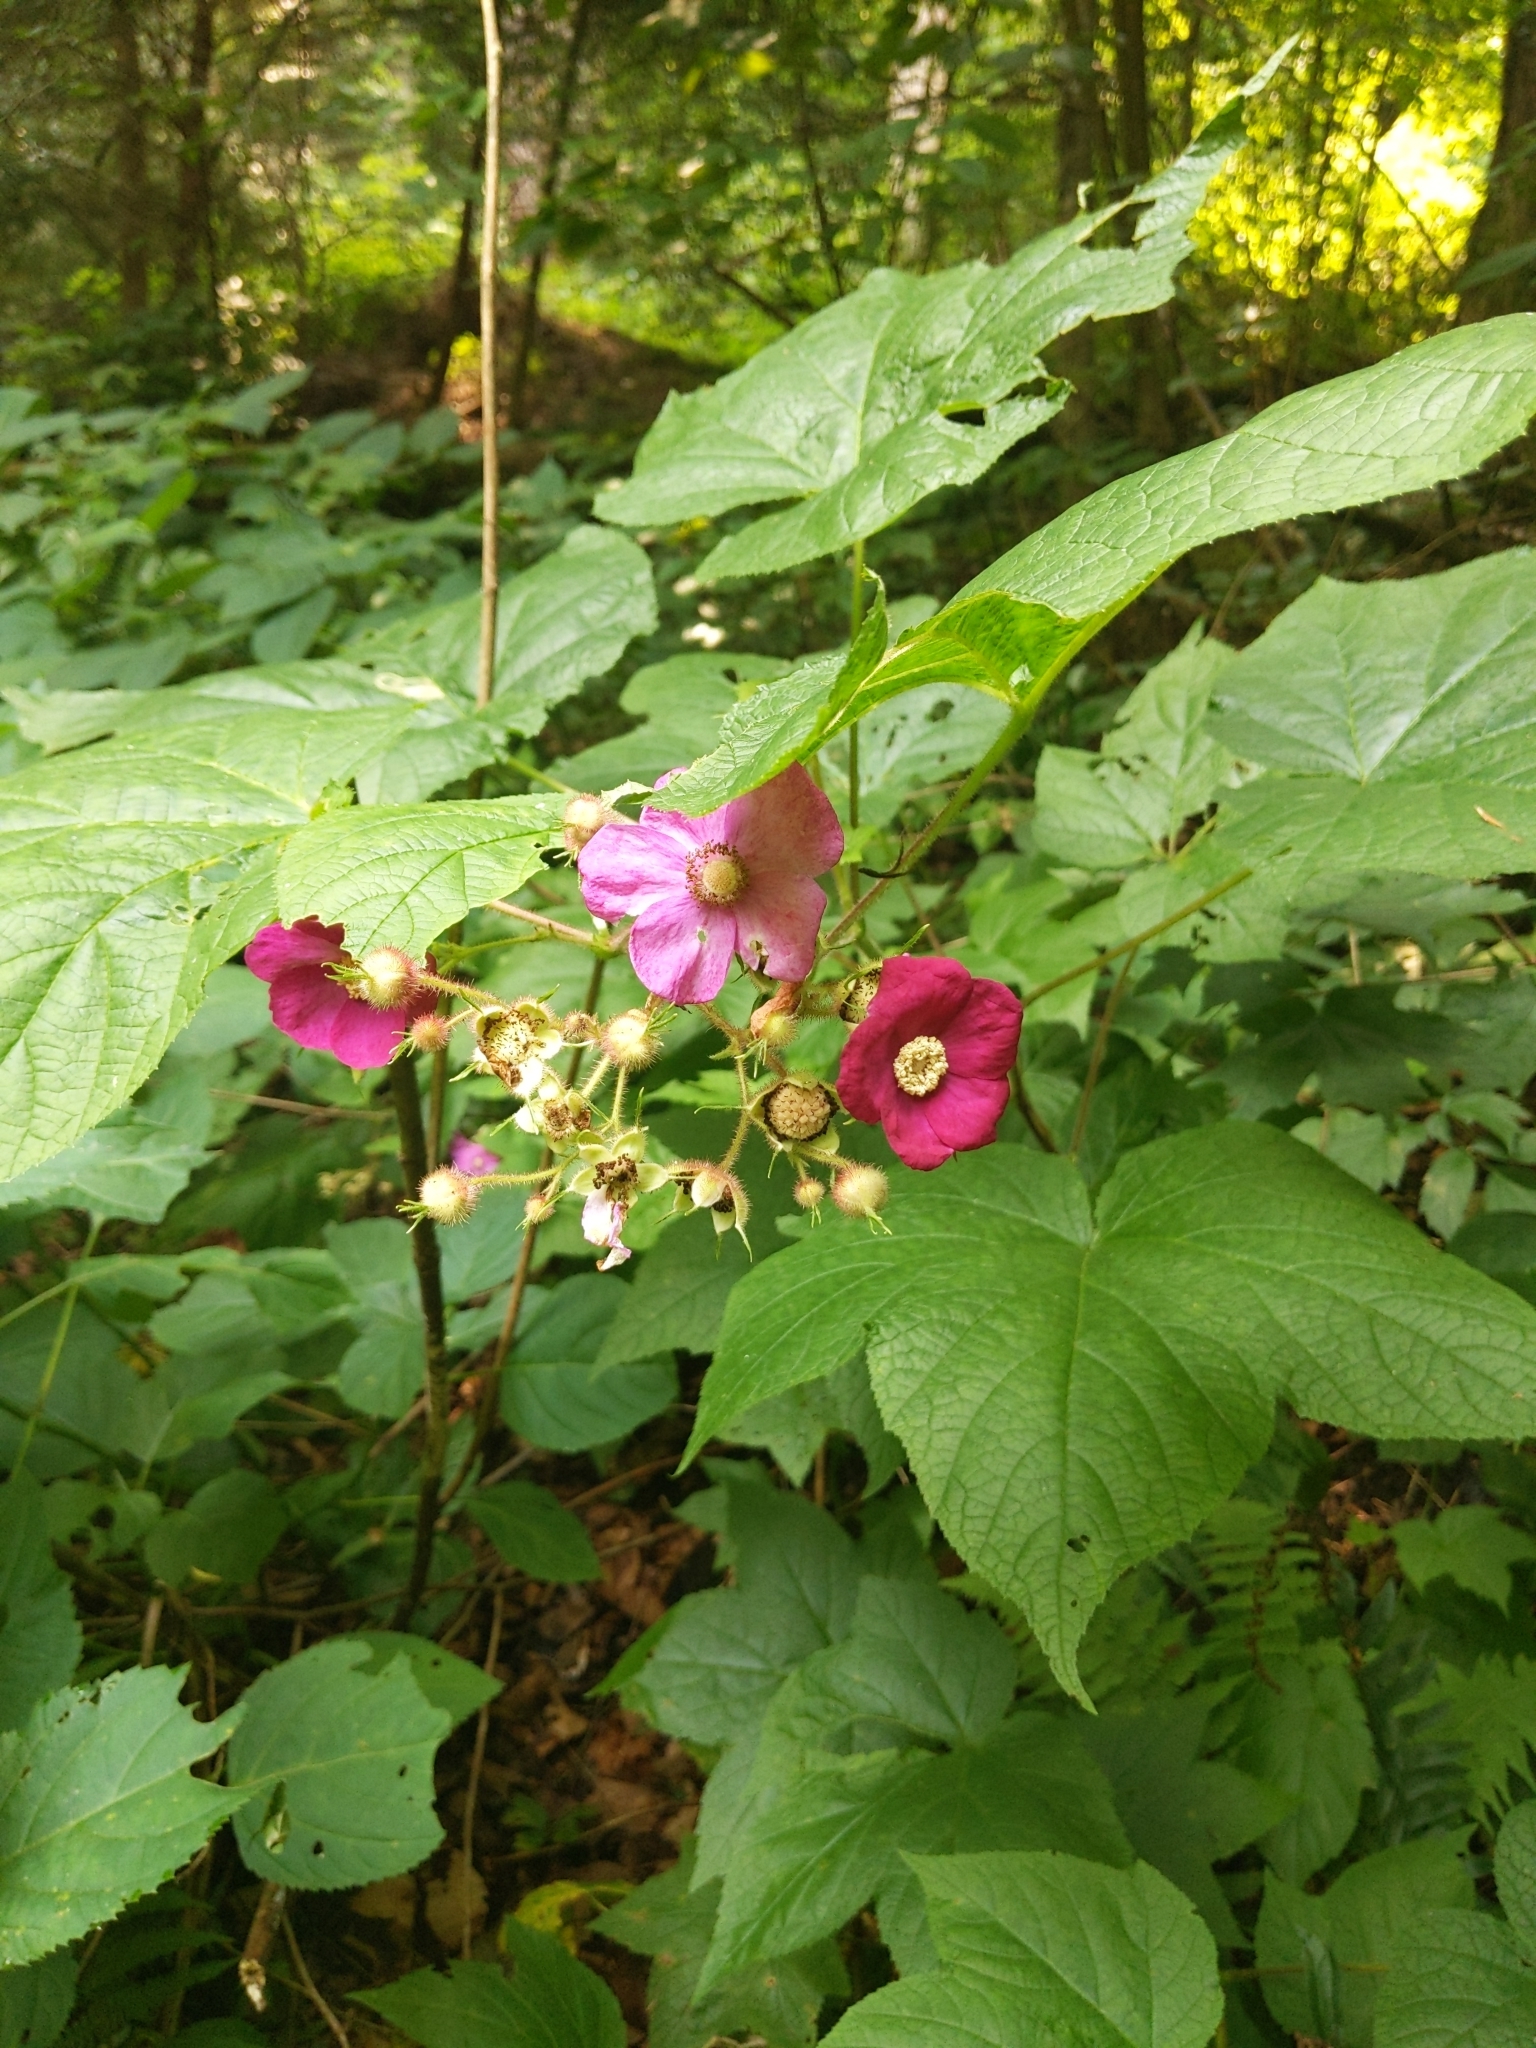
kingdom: Plantae
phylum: Tracheophyta
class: Magnoliopsida
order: Rosales
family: Rosaceae
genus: Rubus
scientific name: Rubus odoratus
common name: Purple-flowered raspberry
